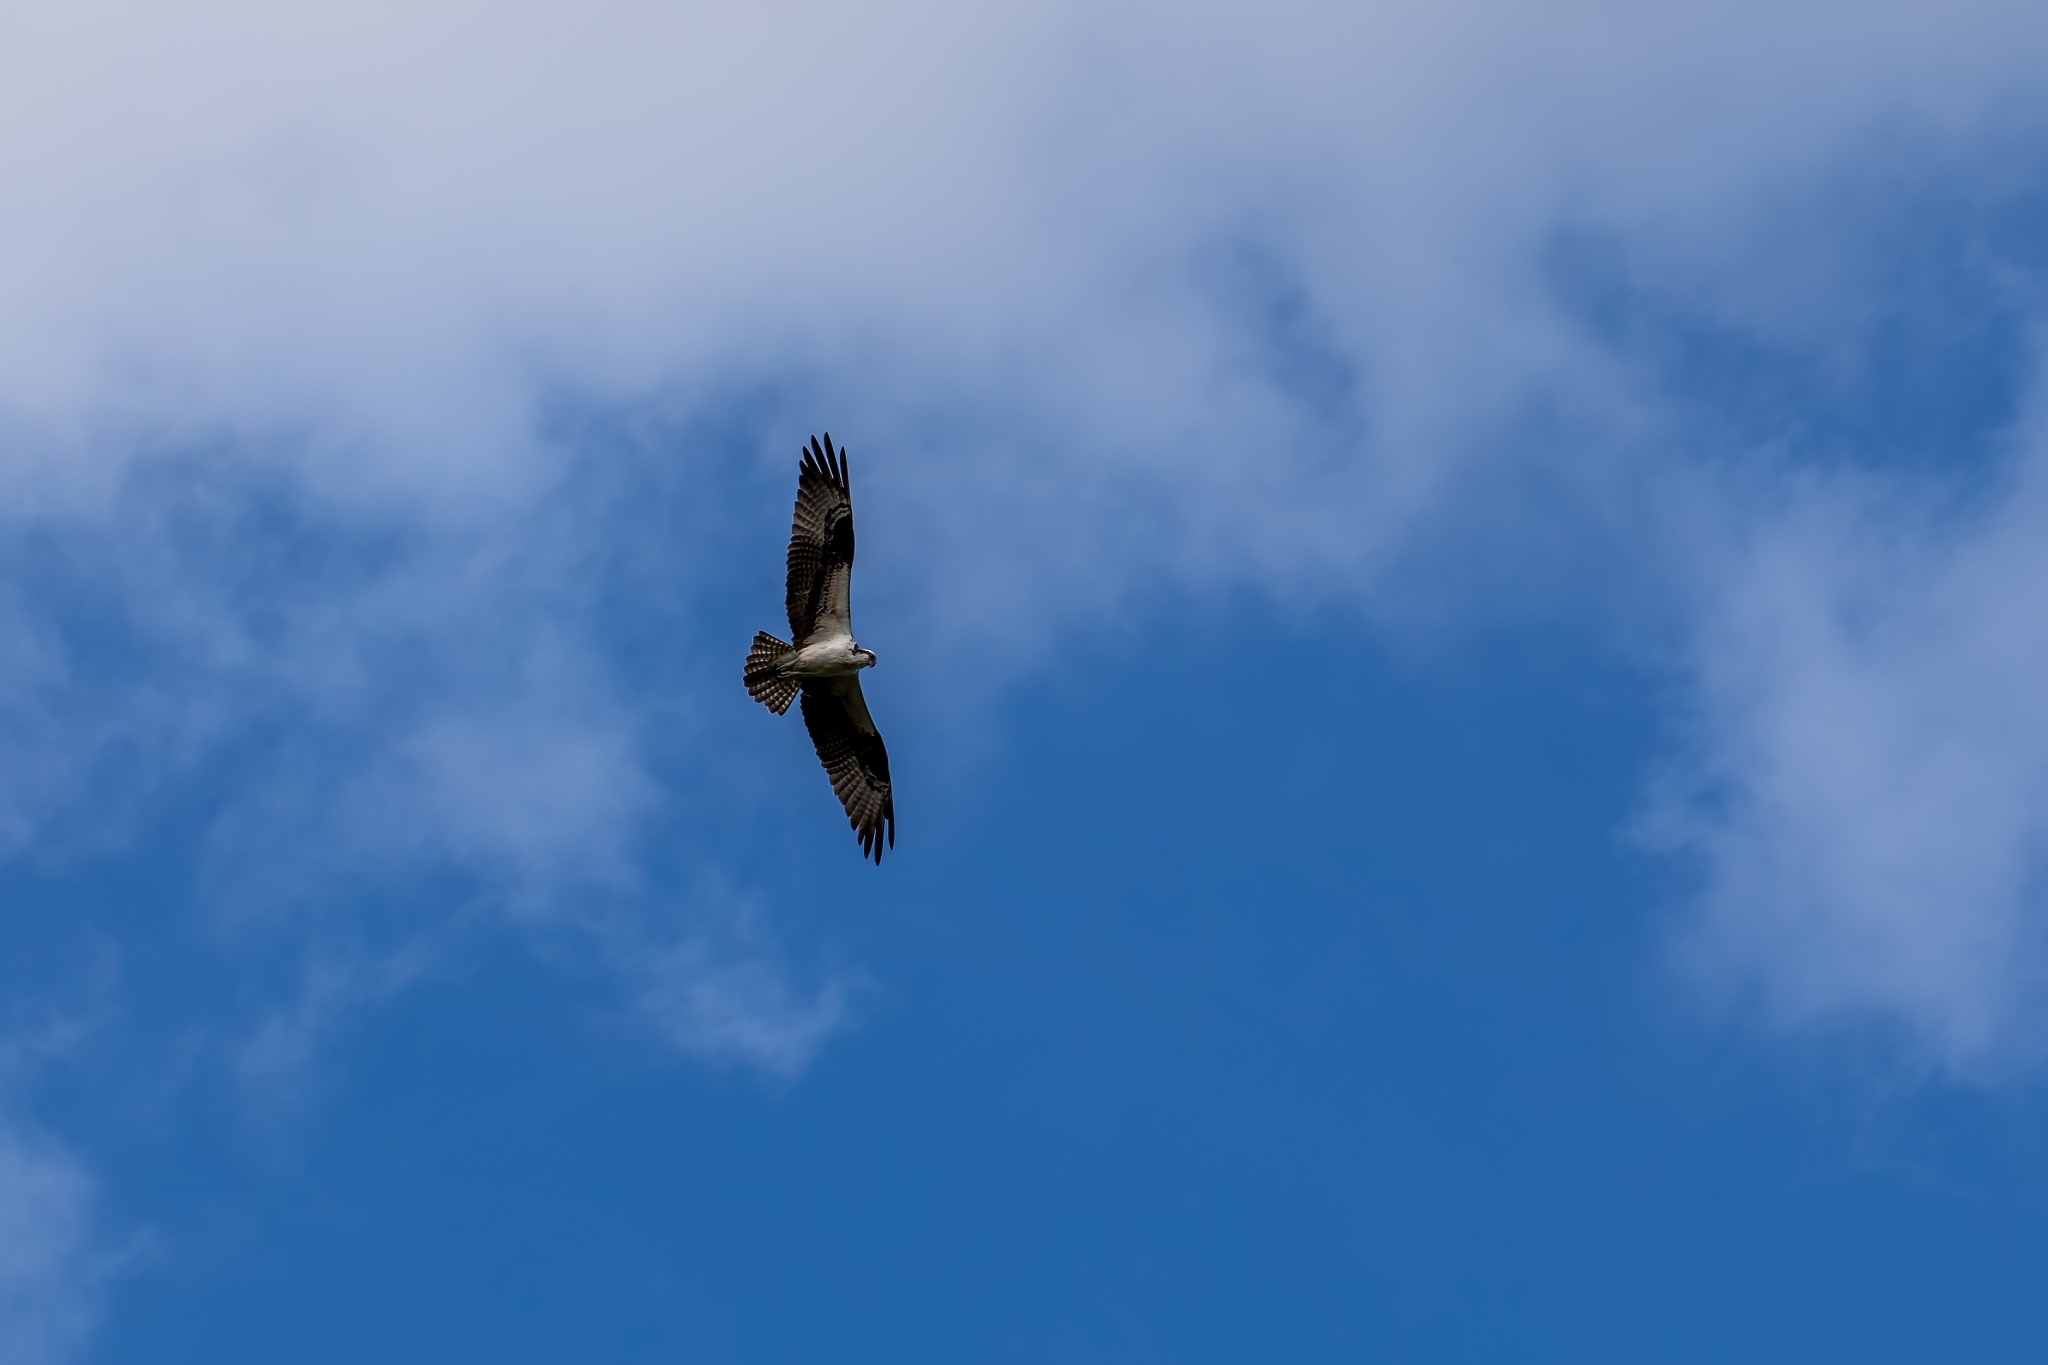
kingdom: Animalia
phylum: Chordata
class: Aves
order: Accipitriformes
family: Pandionidae
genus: Pandion
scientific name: Pandion haliaetus
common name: Osprey
